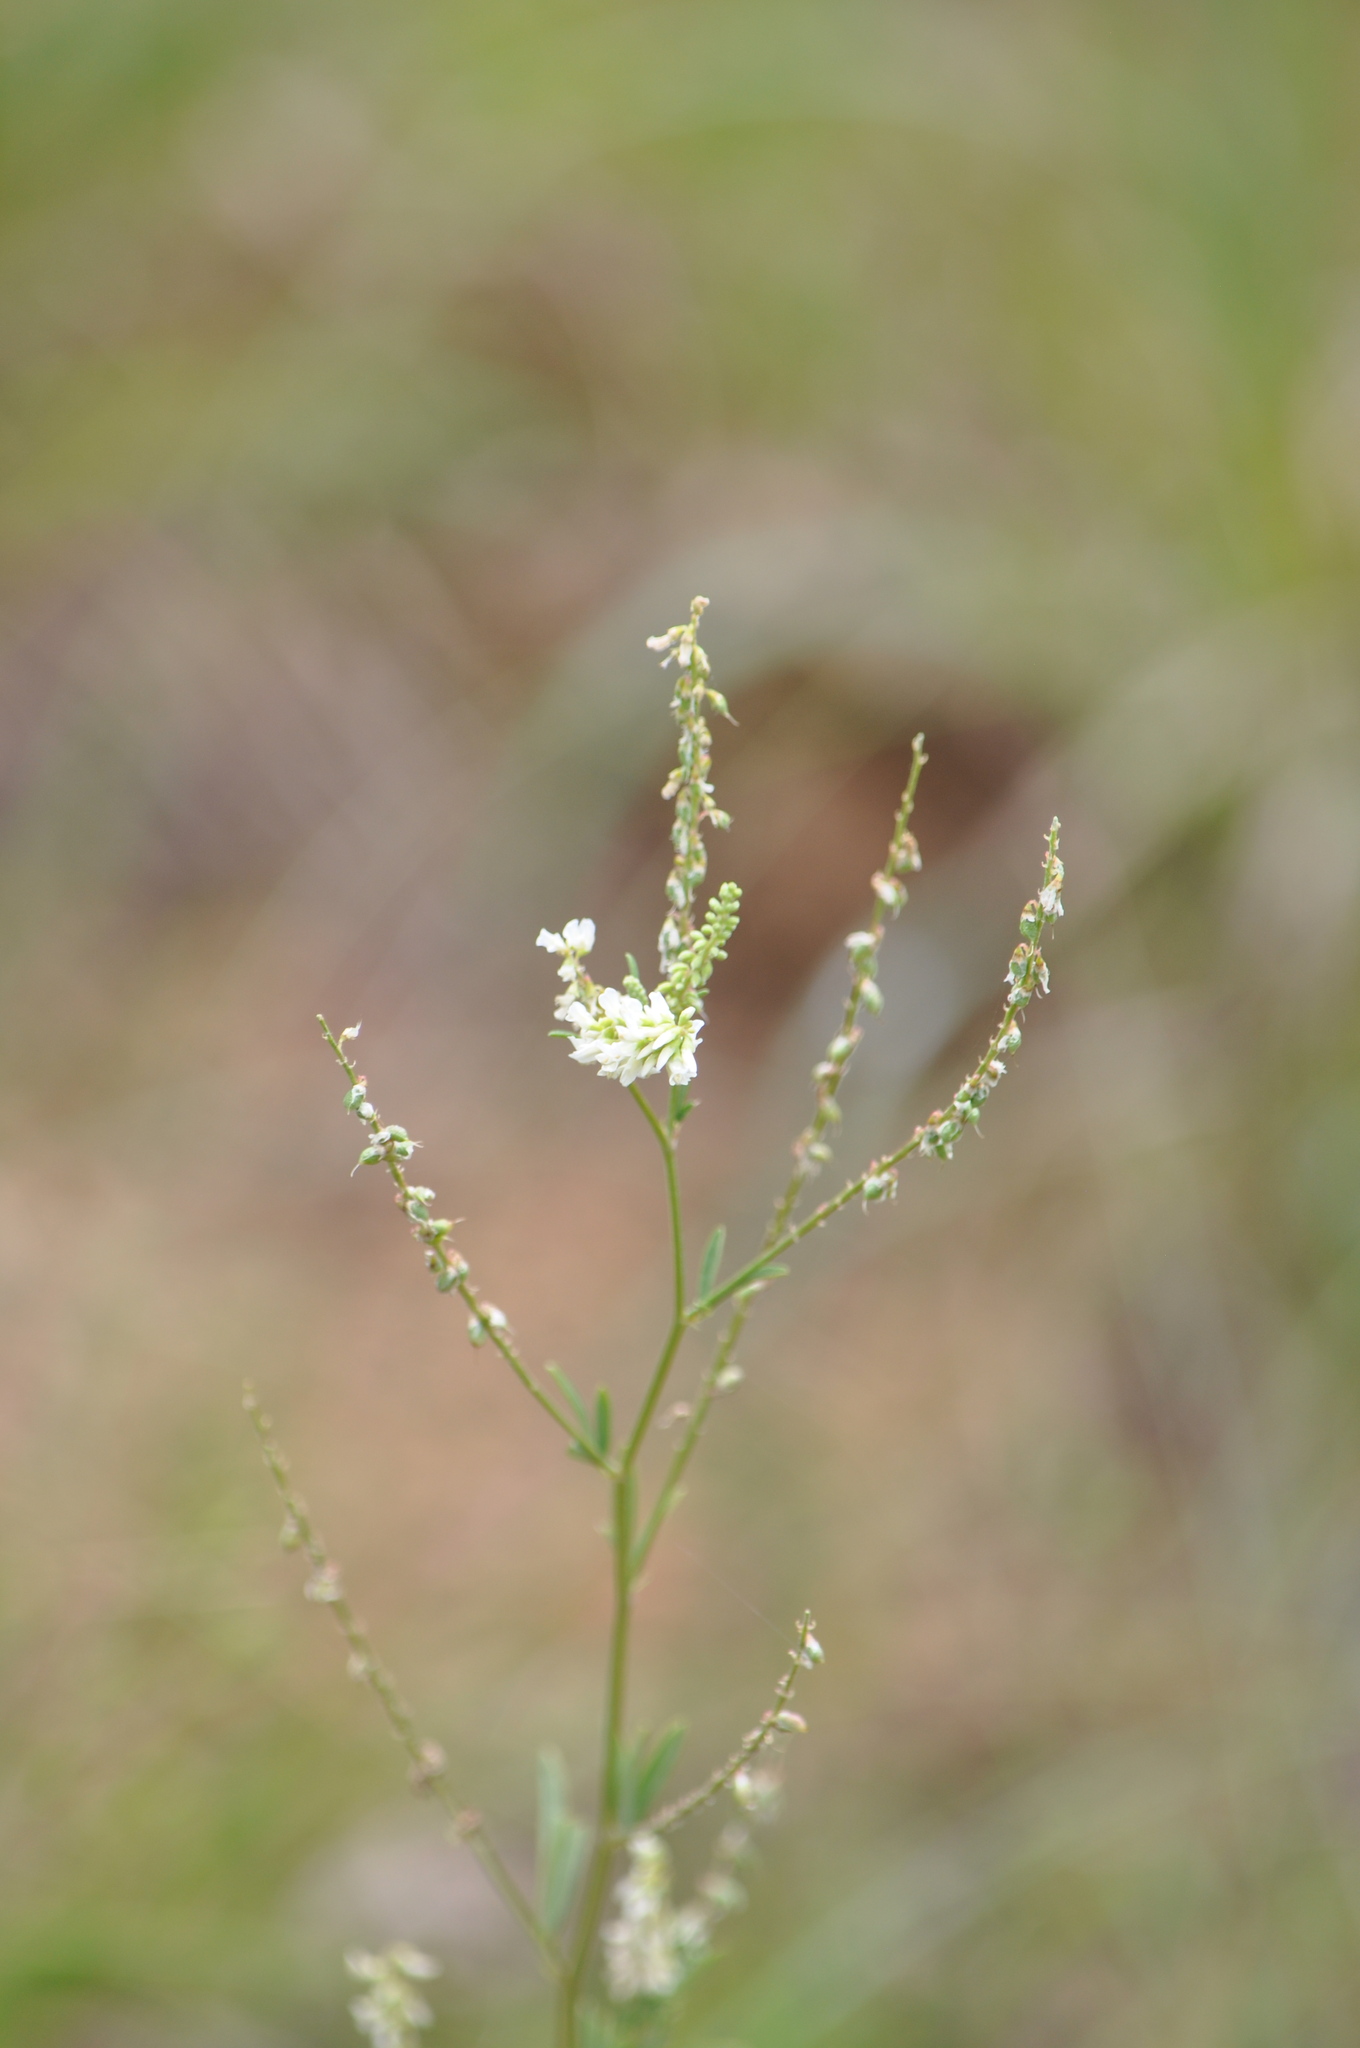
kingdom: Plantae
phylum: Tracheophyta
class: Magnoliopsida
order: Fabales
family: Fabaceae
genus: Melilotus
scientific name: Melilotus albus
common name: White melilot
